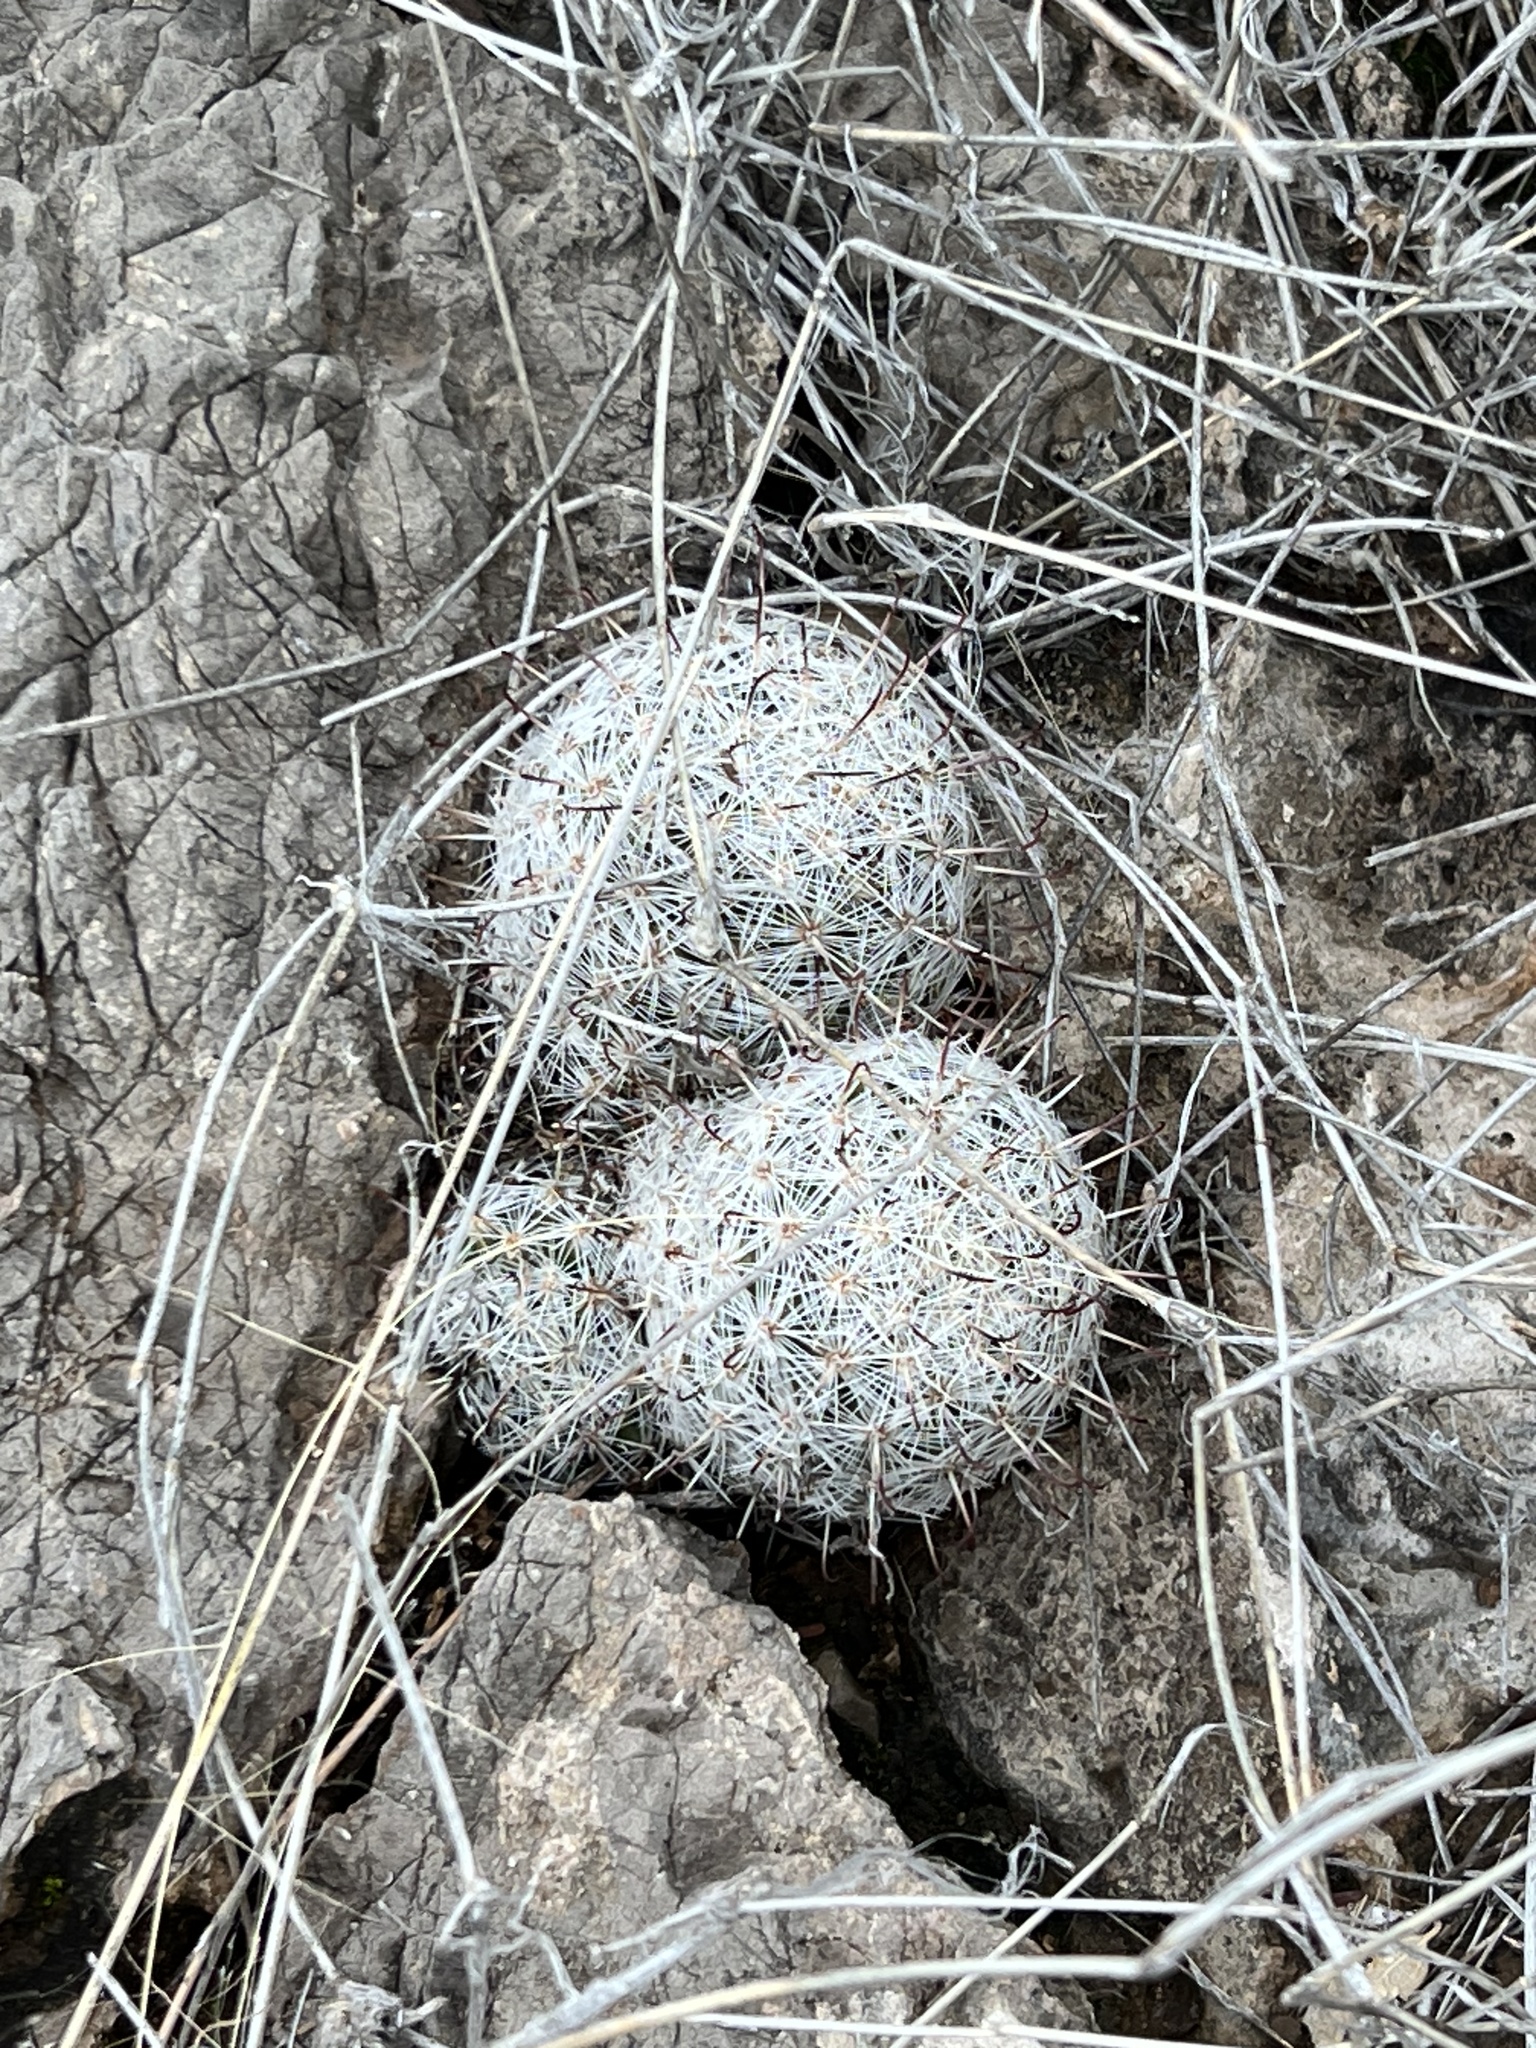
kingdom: Plantae
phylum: Tracheophyta
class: Magnoliopsida
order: Caryophyllales
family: Cactaceae
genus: Cochemiea
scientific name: Cochemiea grahamii
